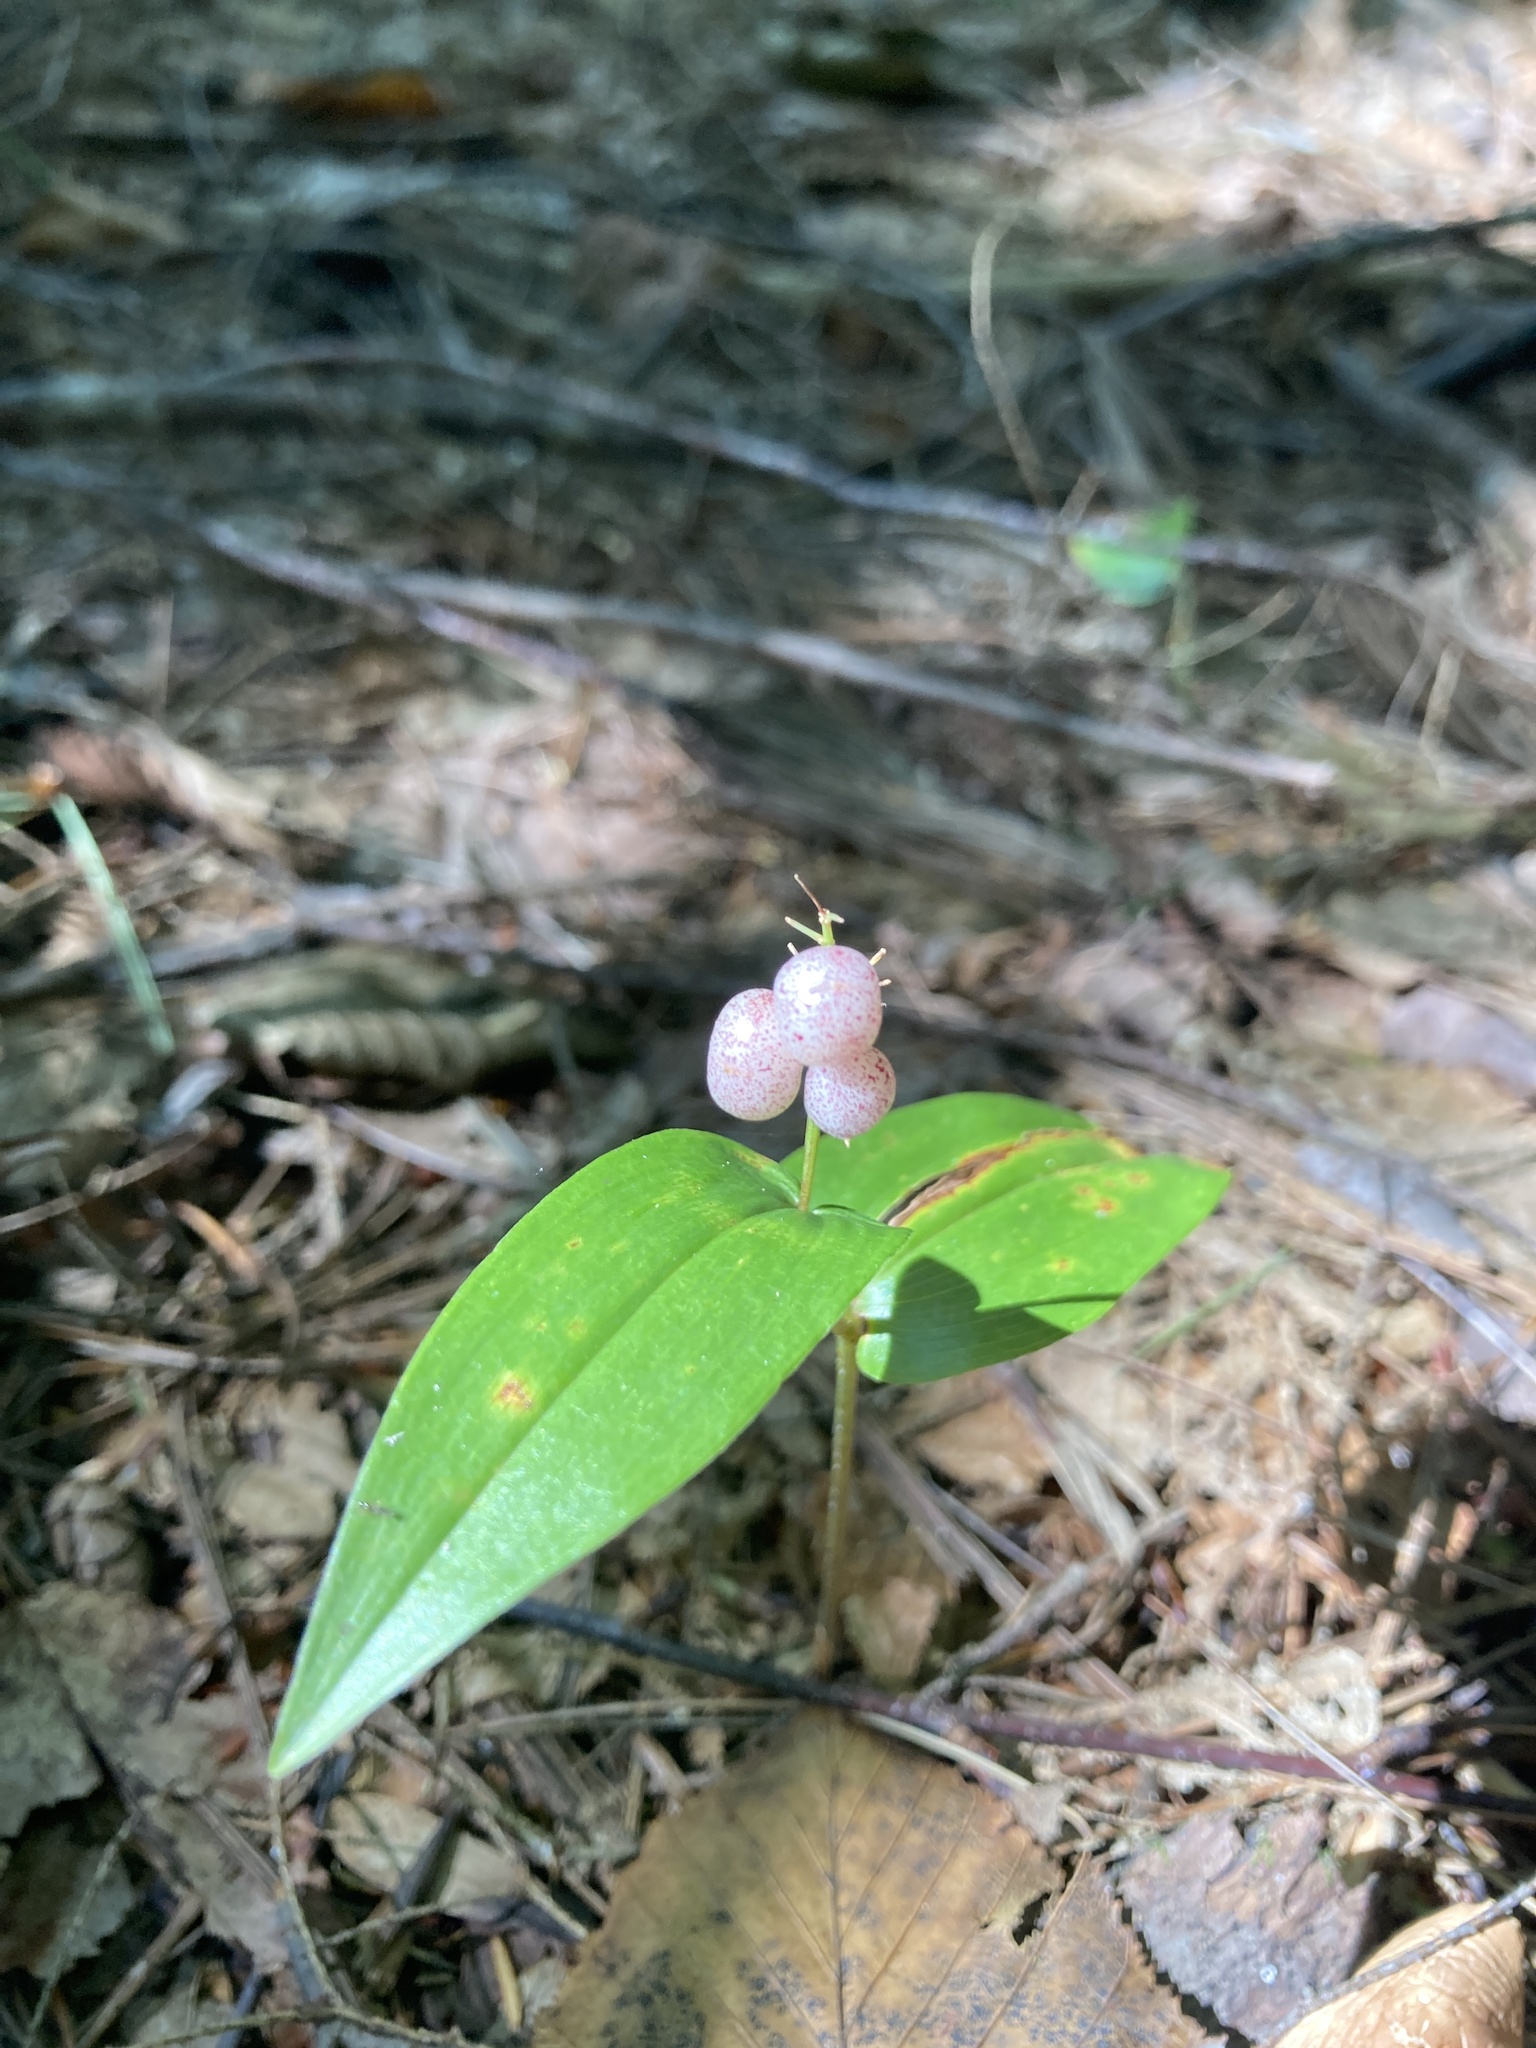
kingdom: Plantae
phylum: Tracheophyta
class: Liliopsida
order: Asparagales
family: Asparagaceae
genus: Maianthemum
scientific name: Maianthemum canadense
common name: False lily-of-the-valley
